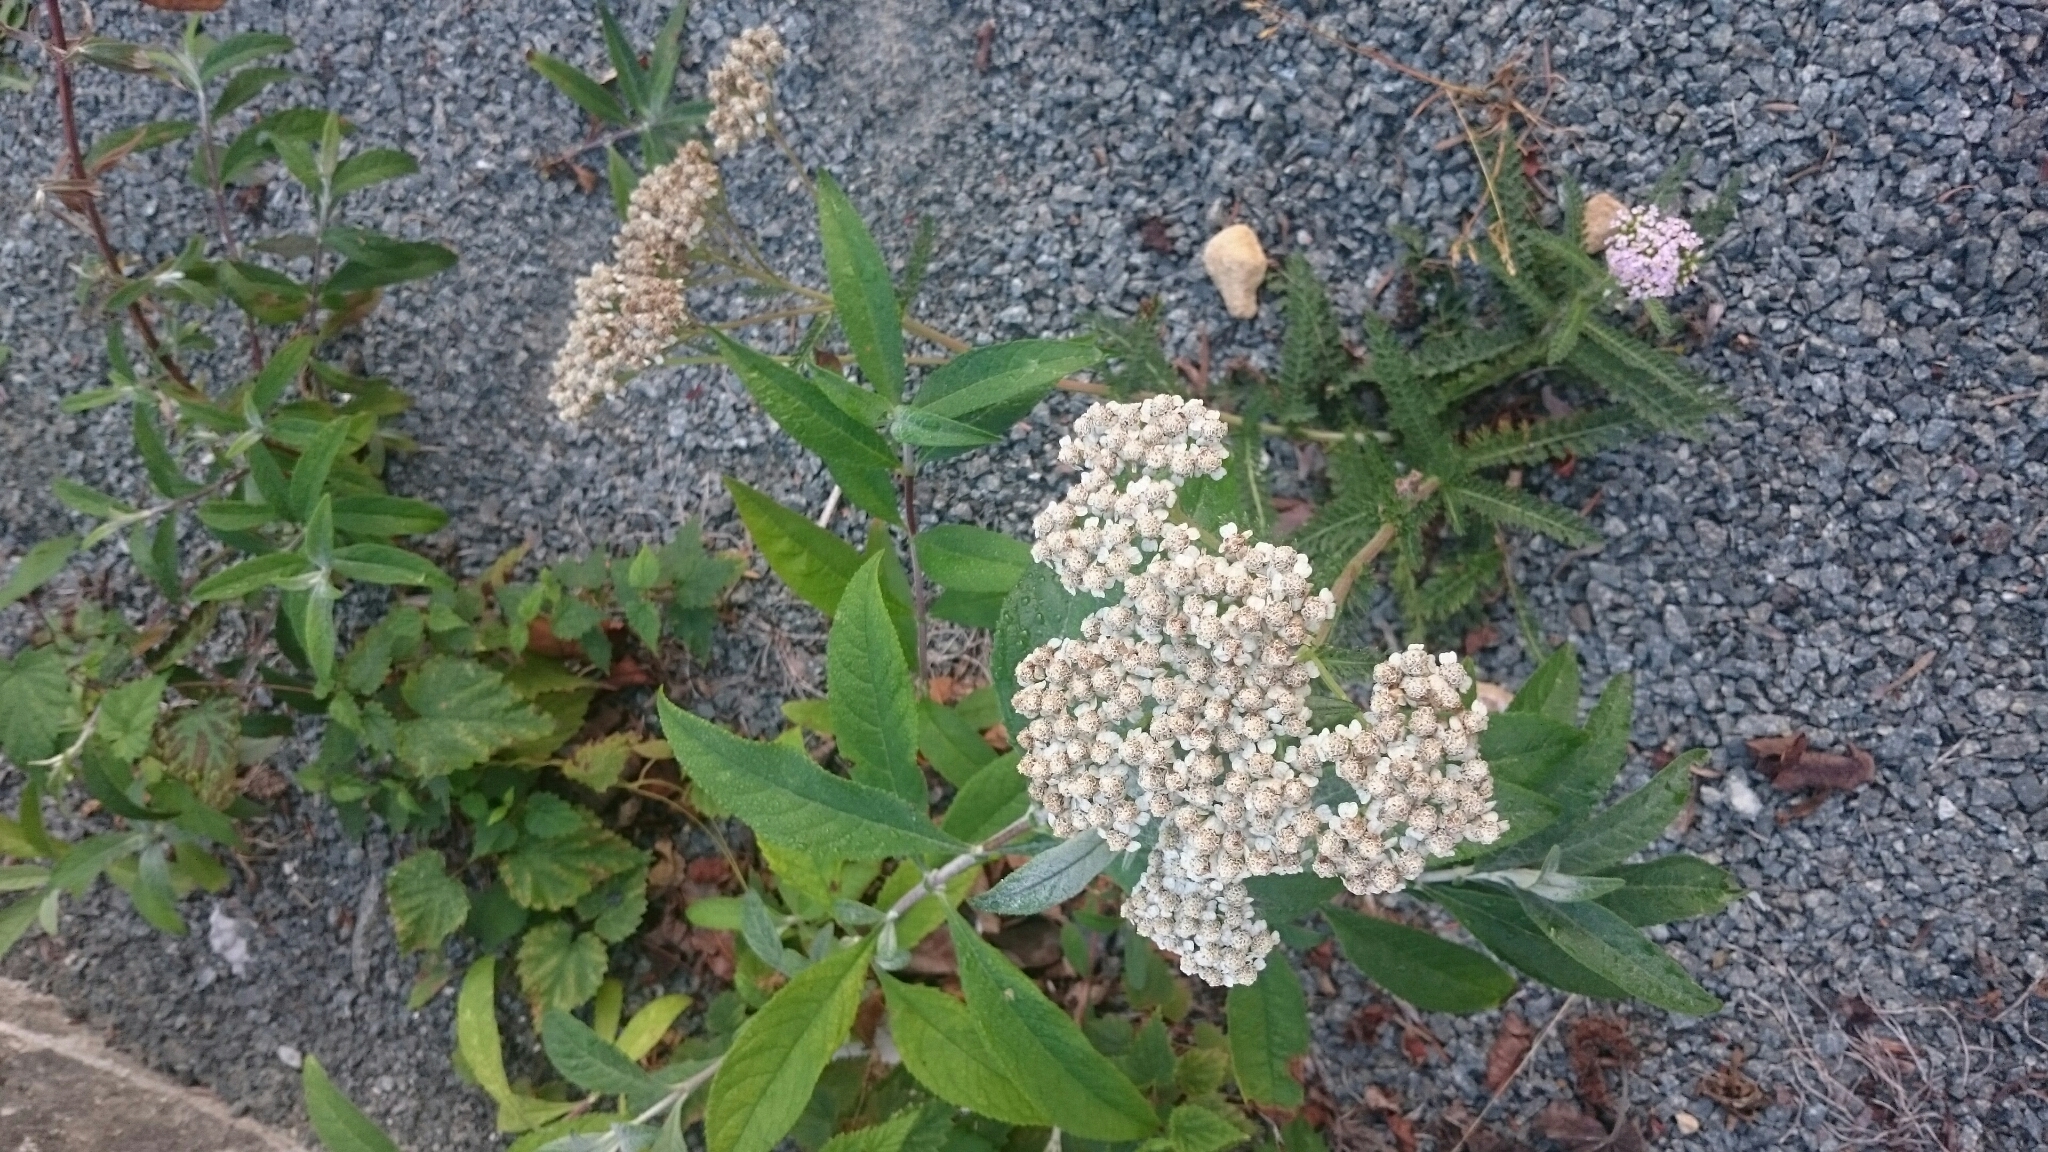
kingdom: Plantae
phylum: Tracheophyta
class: Magnoliopsida
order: Asterales
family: Asteraceae
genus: Achillea
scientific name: Achillea millefolium
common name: Yarrow
